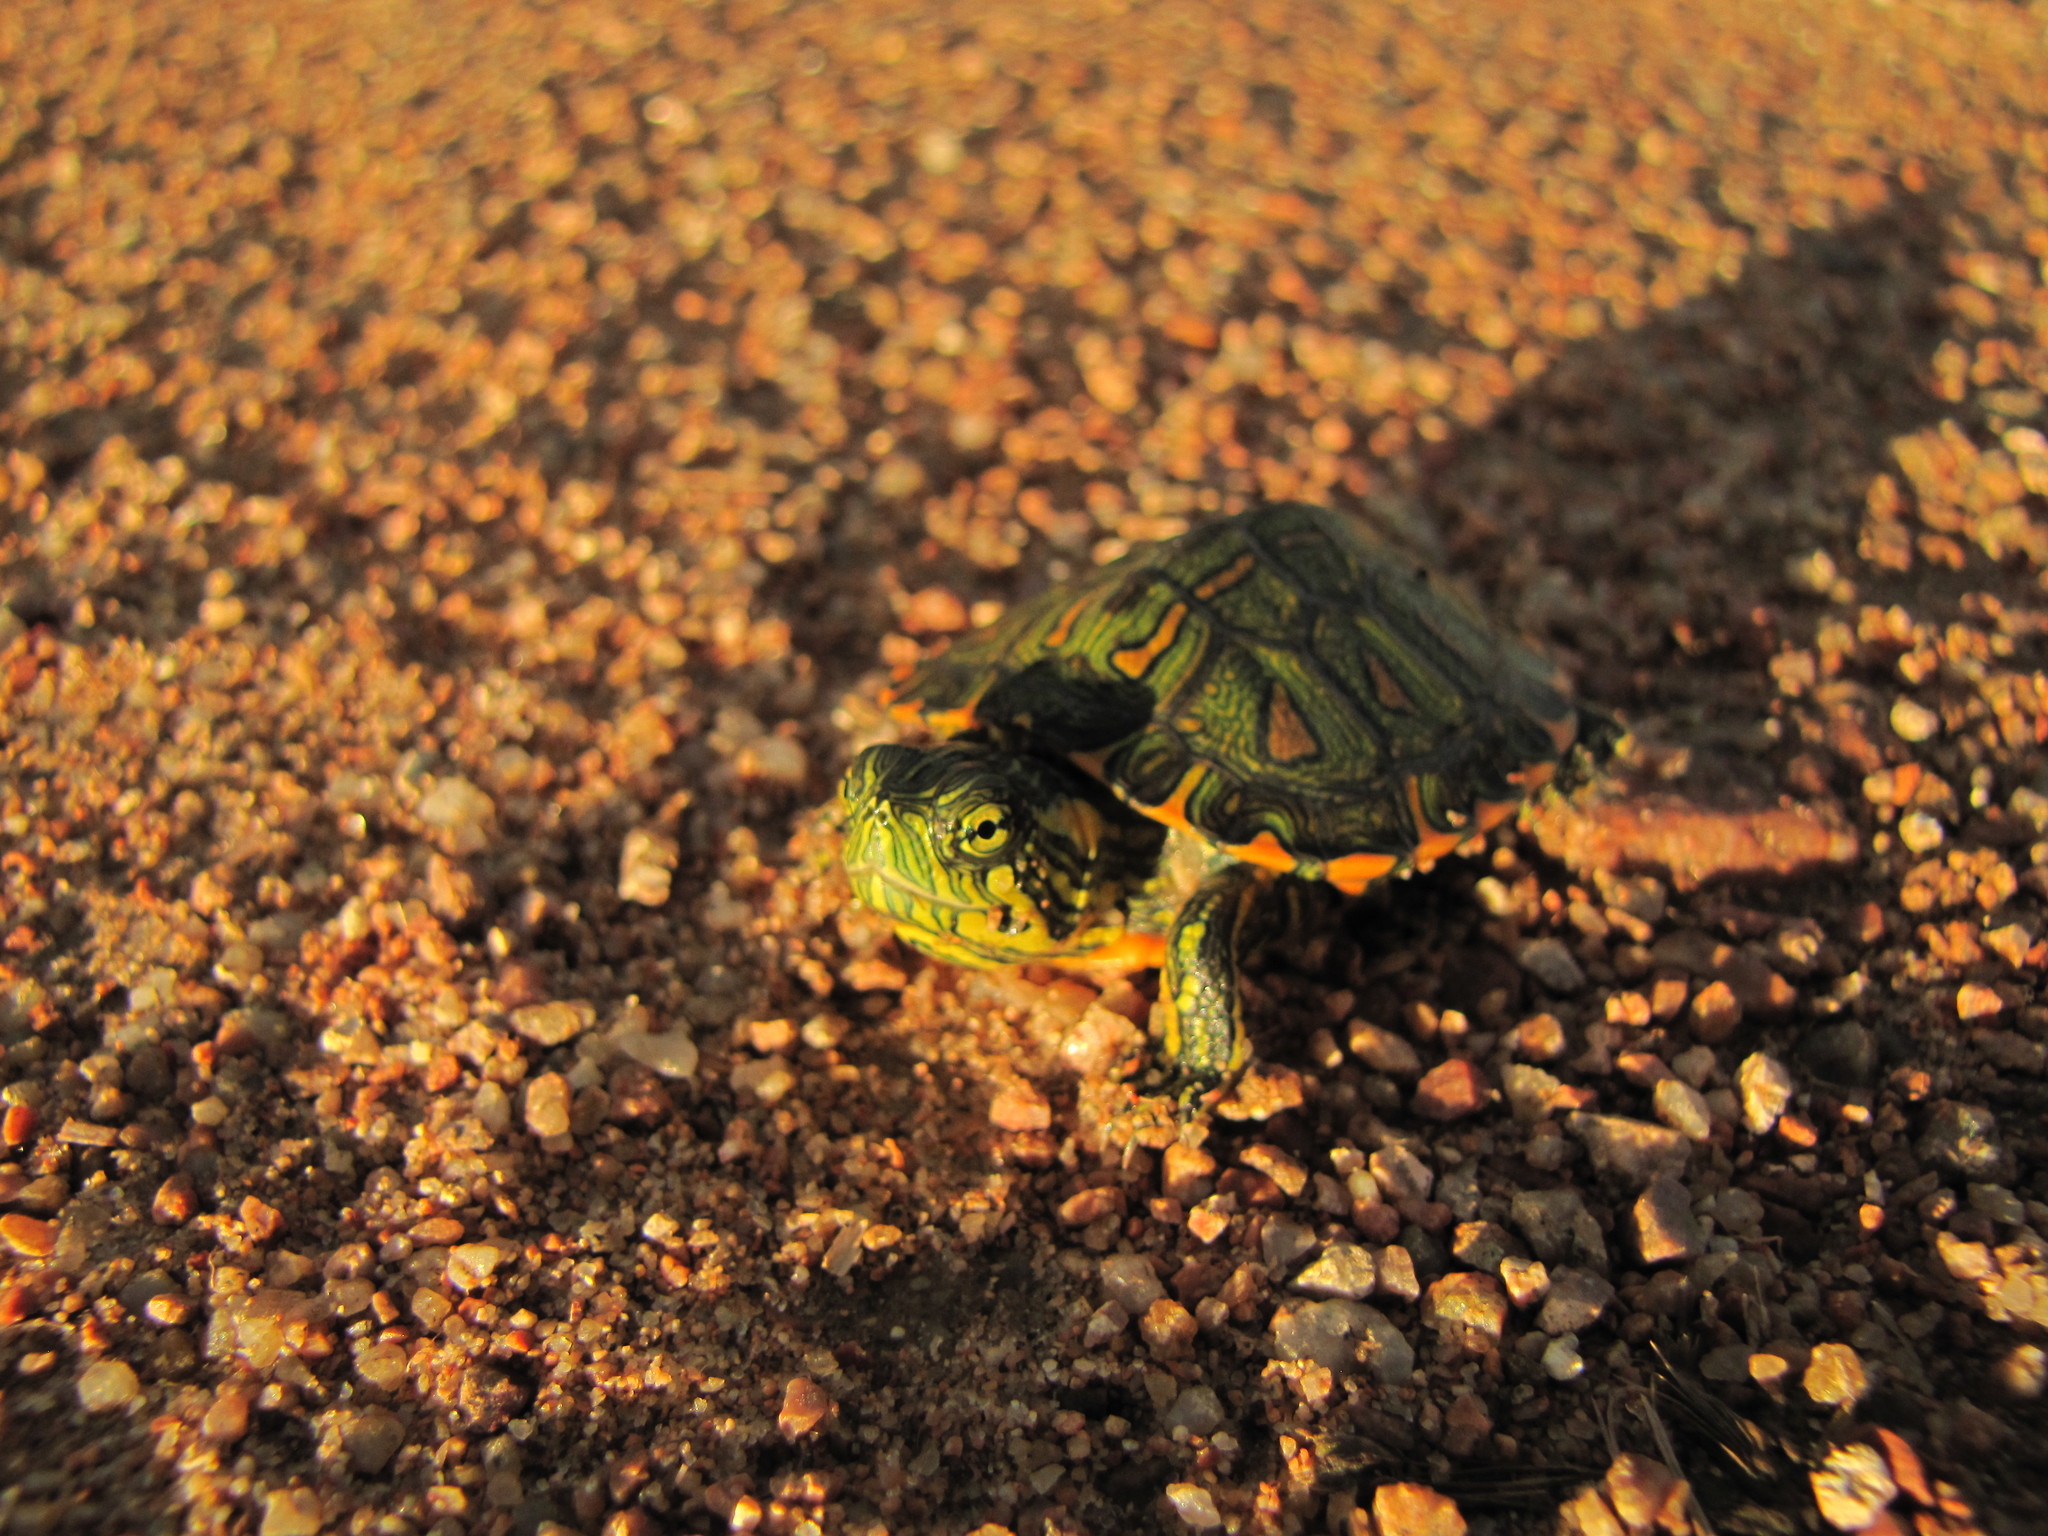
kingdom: Animalia
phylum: Chordata
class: Testudines
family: Emydidae
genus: Trachemys
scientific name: Trachemys dorbigni
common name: Black-bellied slider
